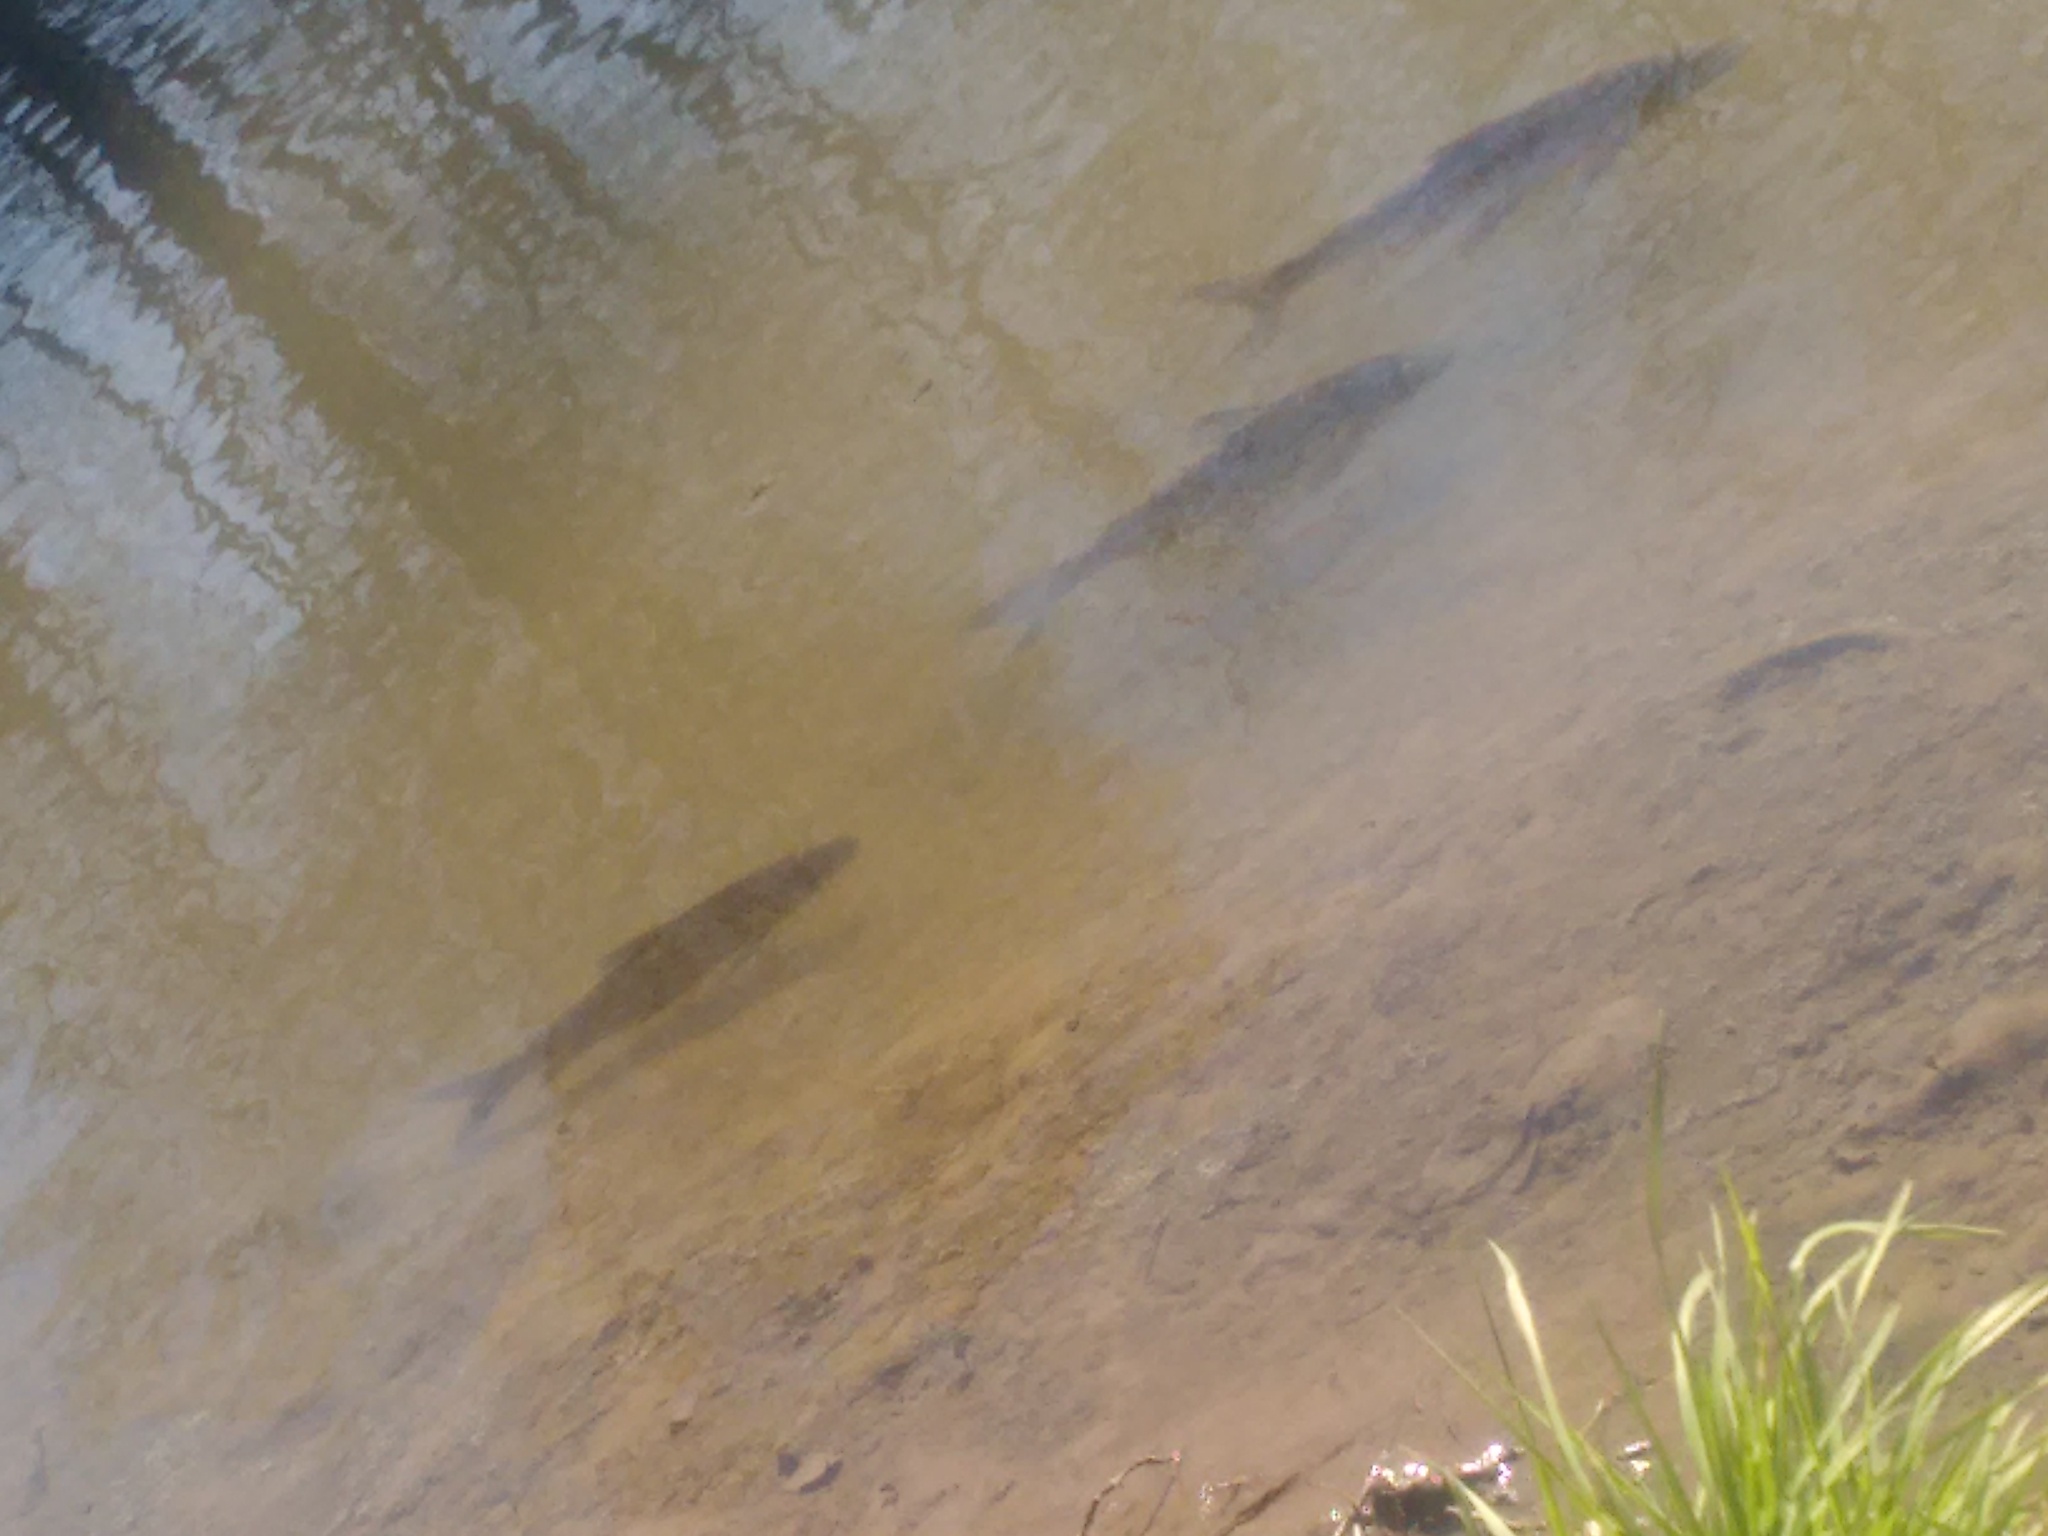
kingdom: Animalia
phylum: Chordata
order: Characiformes
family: Prochilodontidae
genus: Prochilodus
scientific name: Prochilodus lineatus
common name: Curimbata
